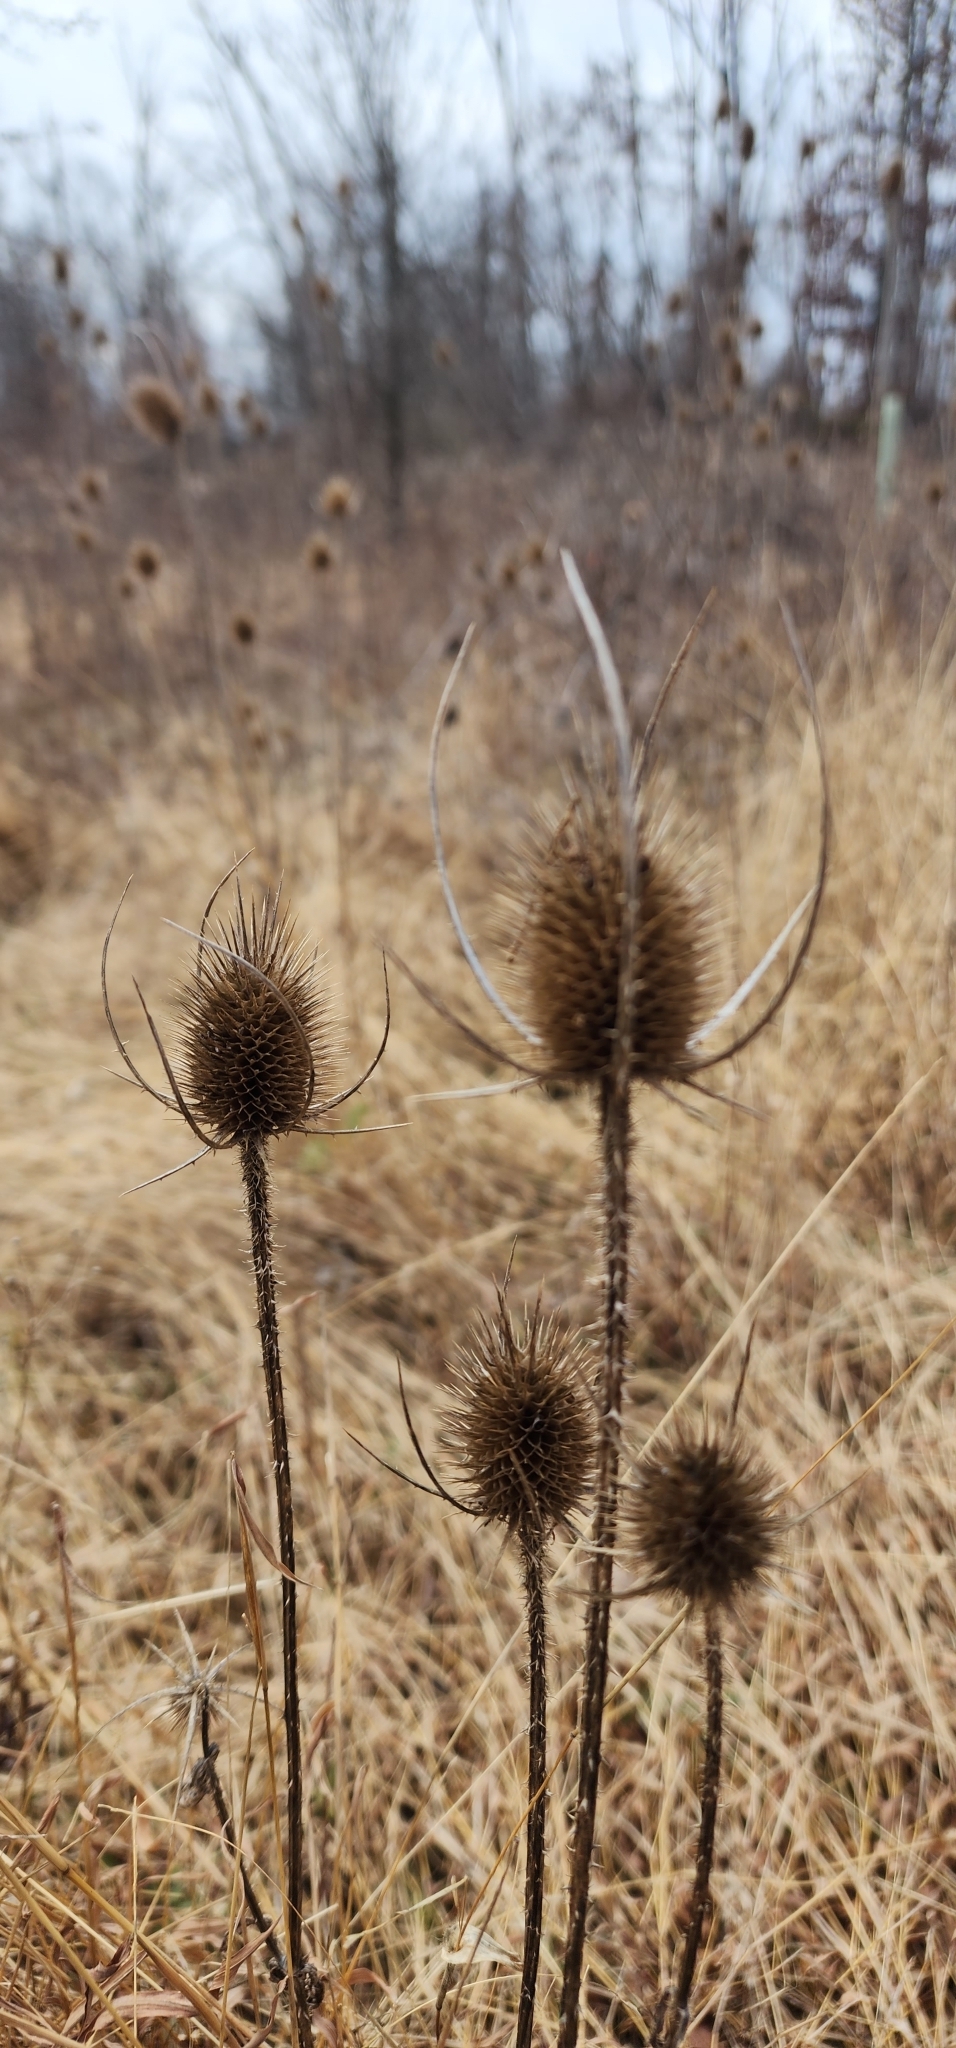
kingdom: Plantae
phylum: Tracheophyta
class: Magnoliopsida
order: Dipsacales
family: Caprifoliaceae
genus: Dipsacus
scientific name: Dipsacus fullonum
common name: Teasel
